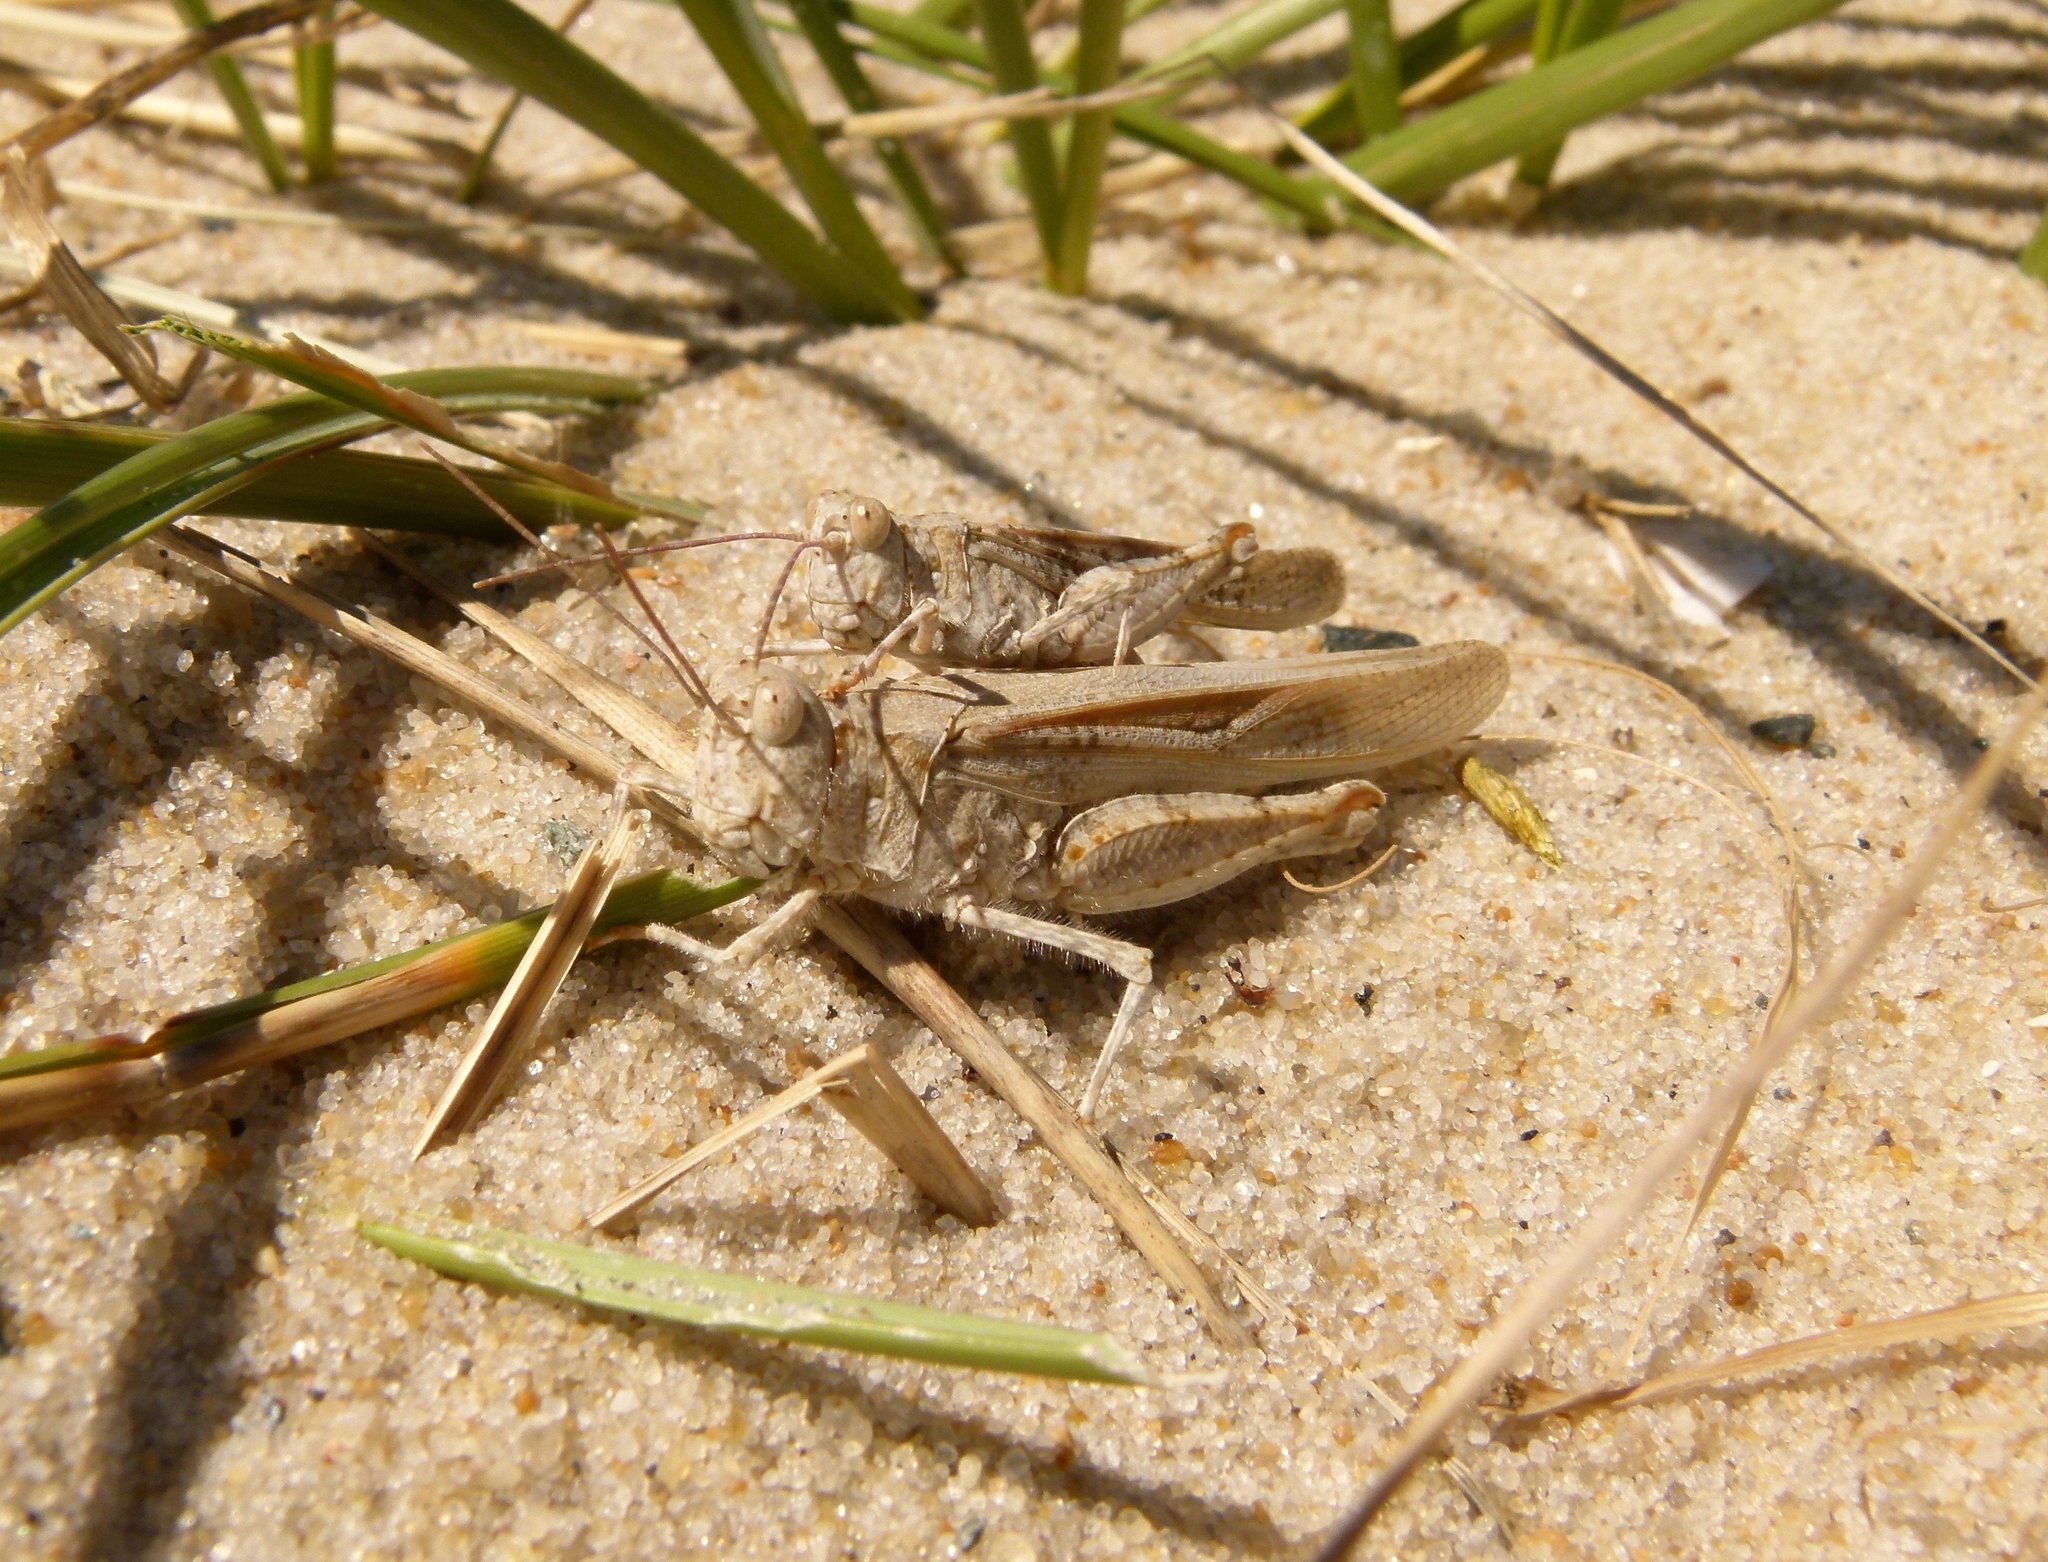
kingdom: Animalia
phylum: Arthropoda
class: Insecta
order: Orthoptera
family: Acrididae
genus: Trimerotropis
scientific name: Trimerotropis maritima
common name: Seaside locust
